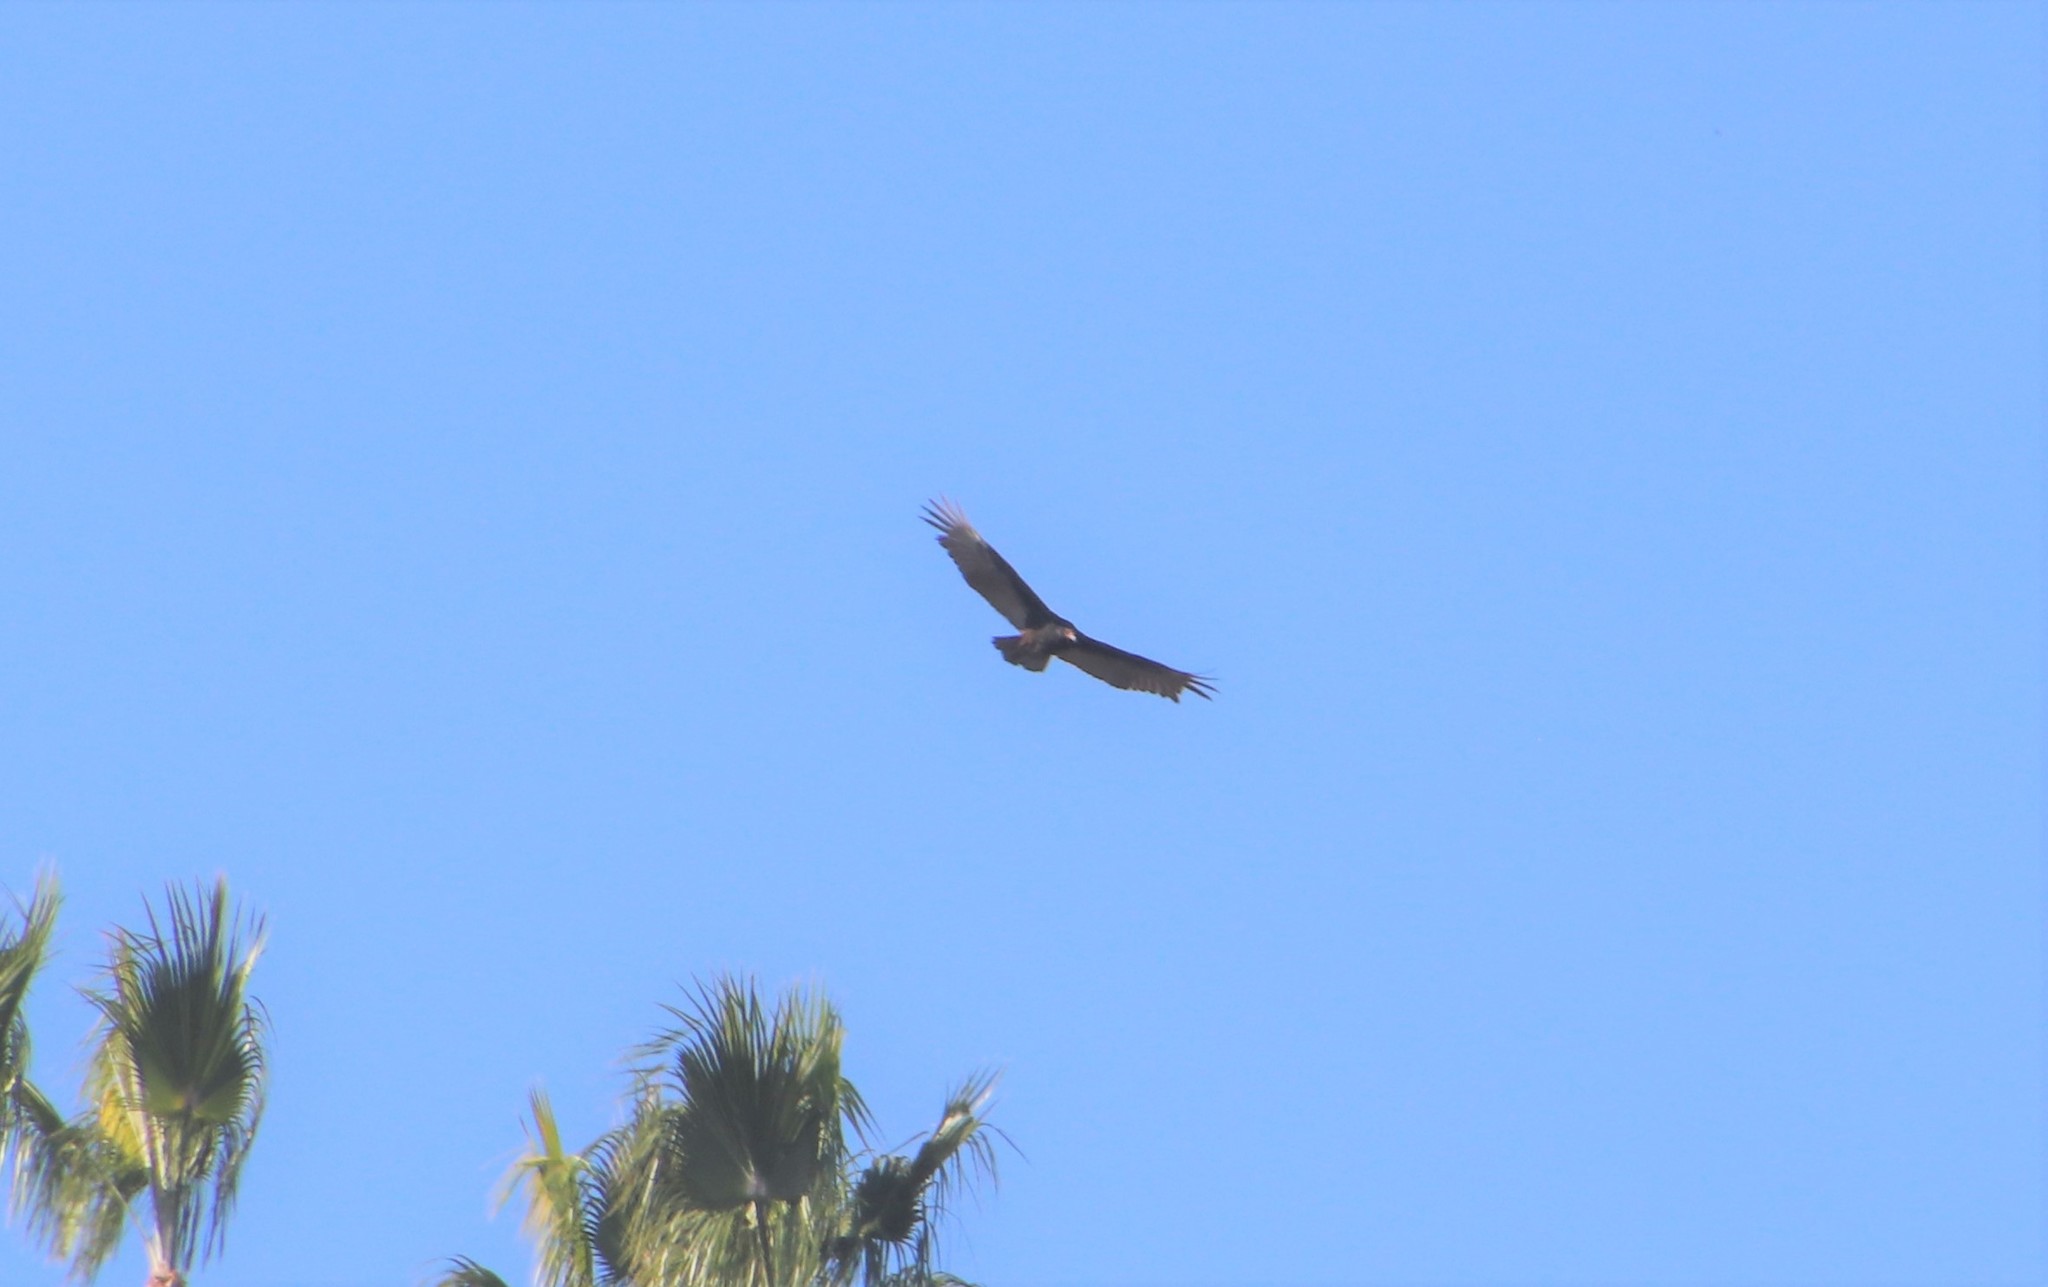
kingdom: Animalia
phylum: Chordata
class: Aves
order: Accipitriformes
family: Cathartidae
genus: Cathartes
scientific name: Cathartes aura
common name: Turkey vulture
